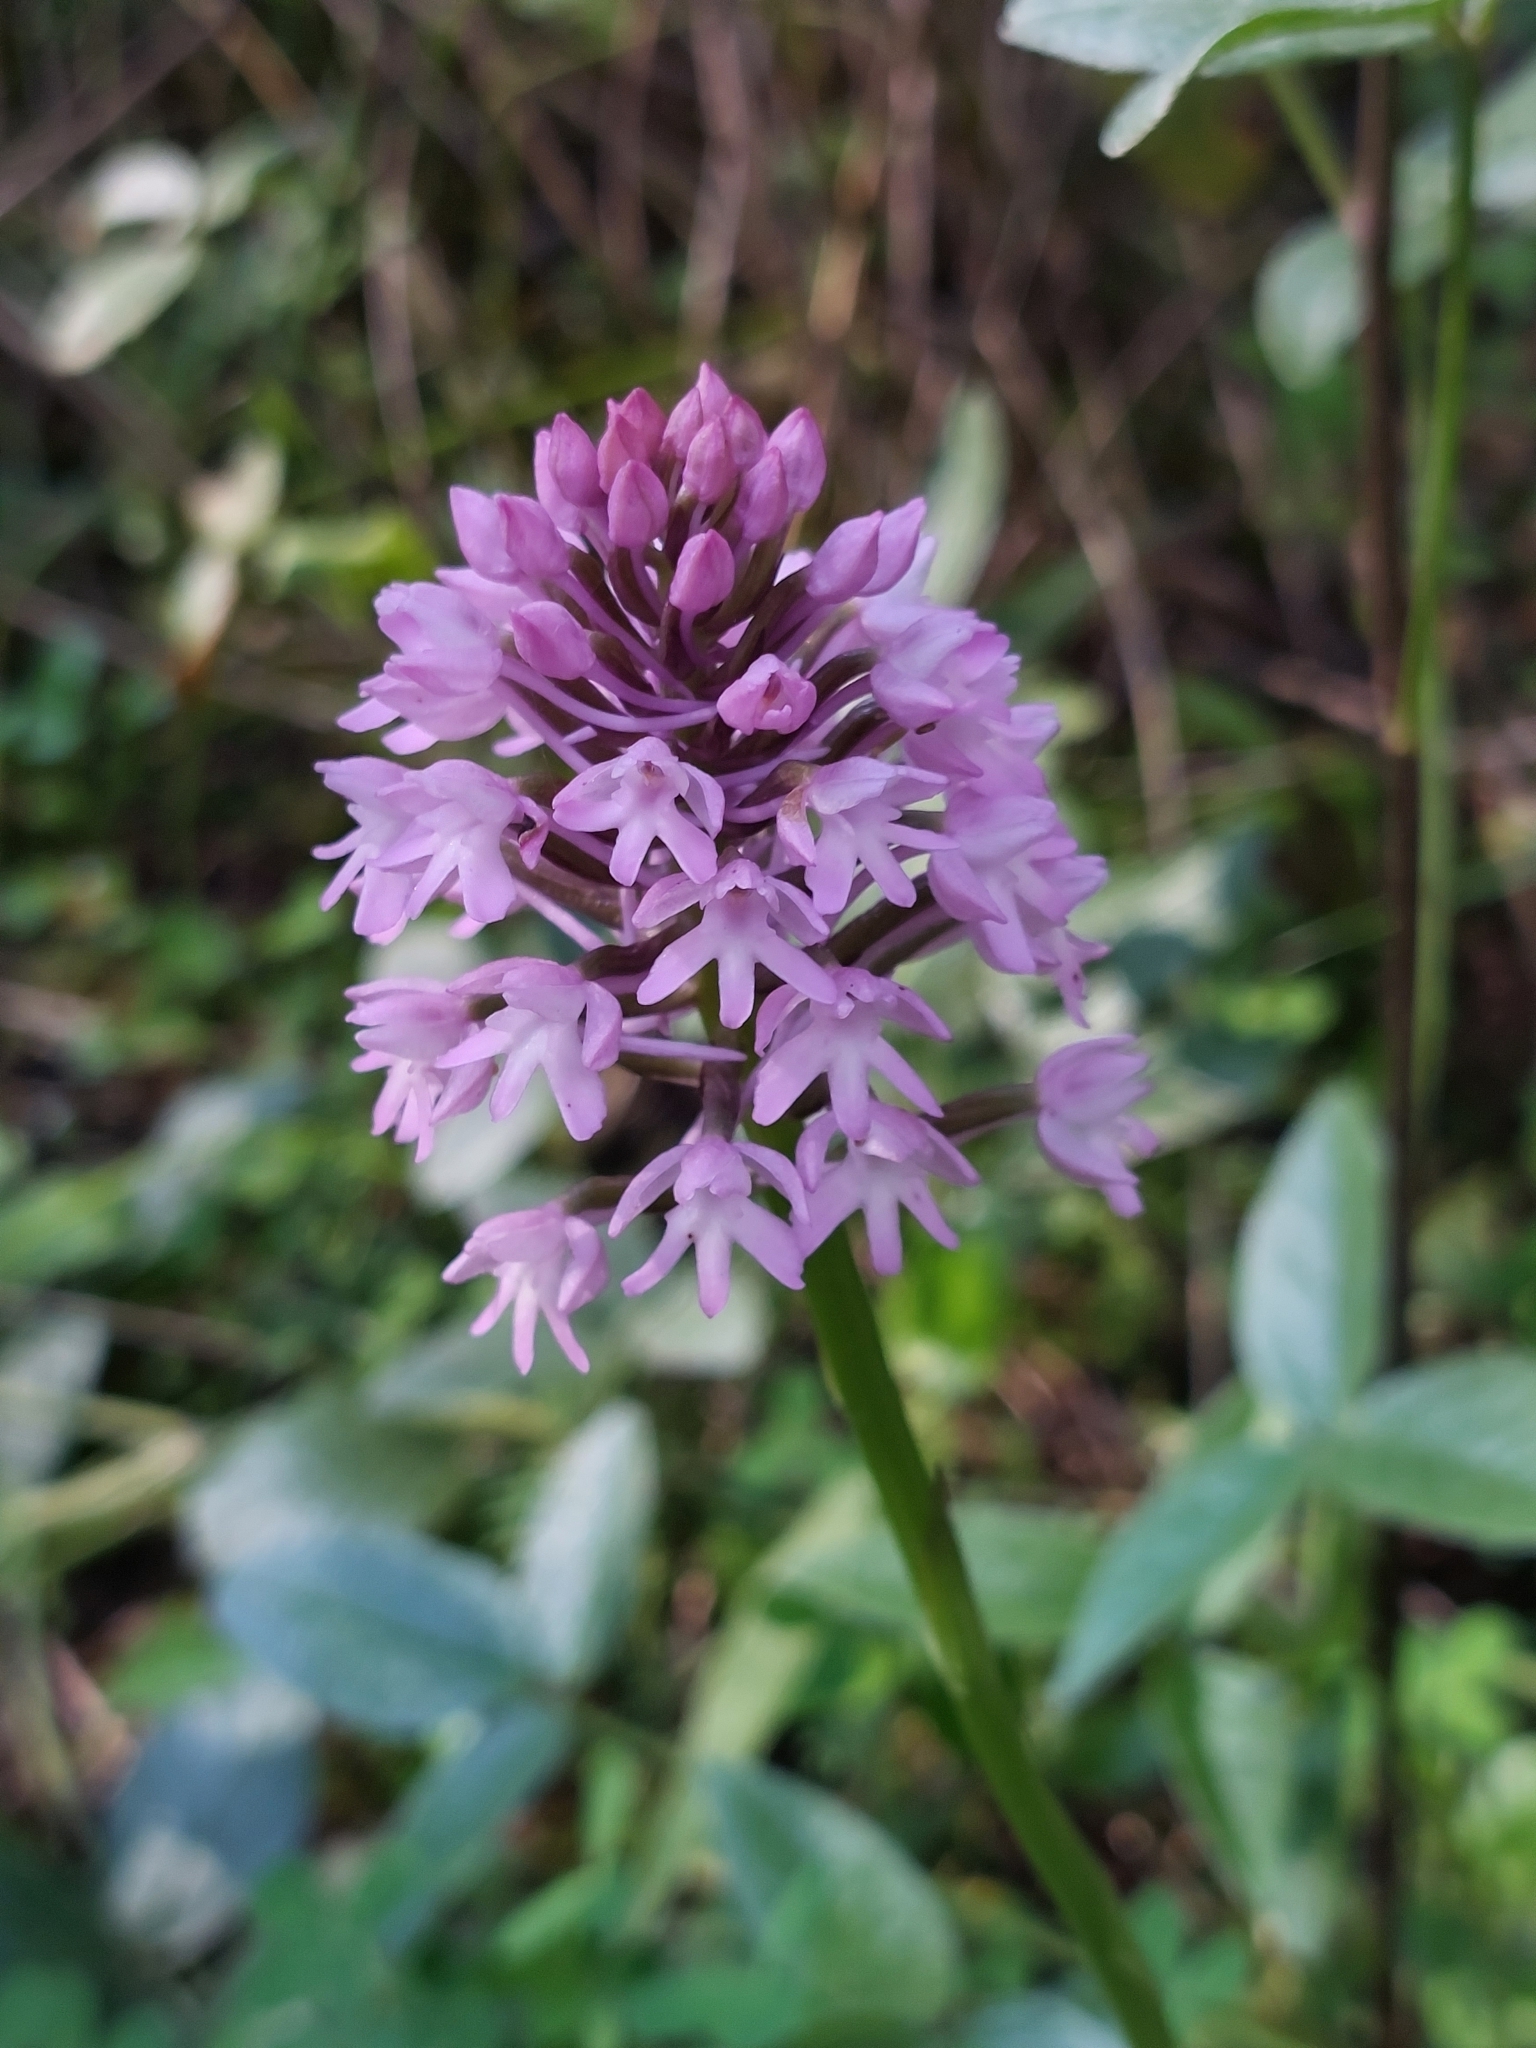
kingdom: Plantae
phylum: Tracheophyta
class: Liliopsida
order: Asparagales
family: Orchidaceae
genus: Anacamptis
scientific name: Anacamptis pyramidalis
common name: Pyramidal orchid
